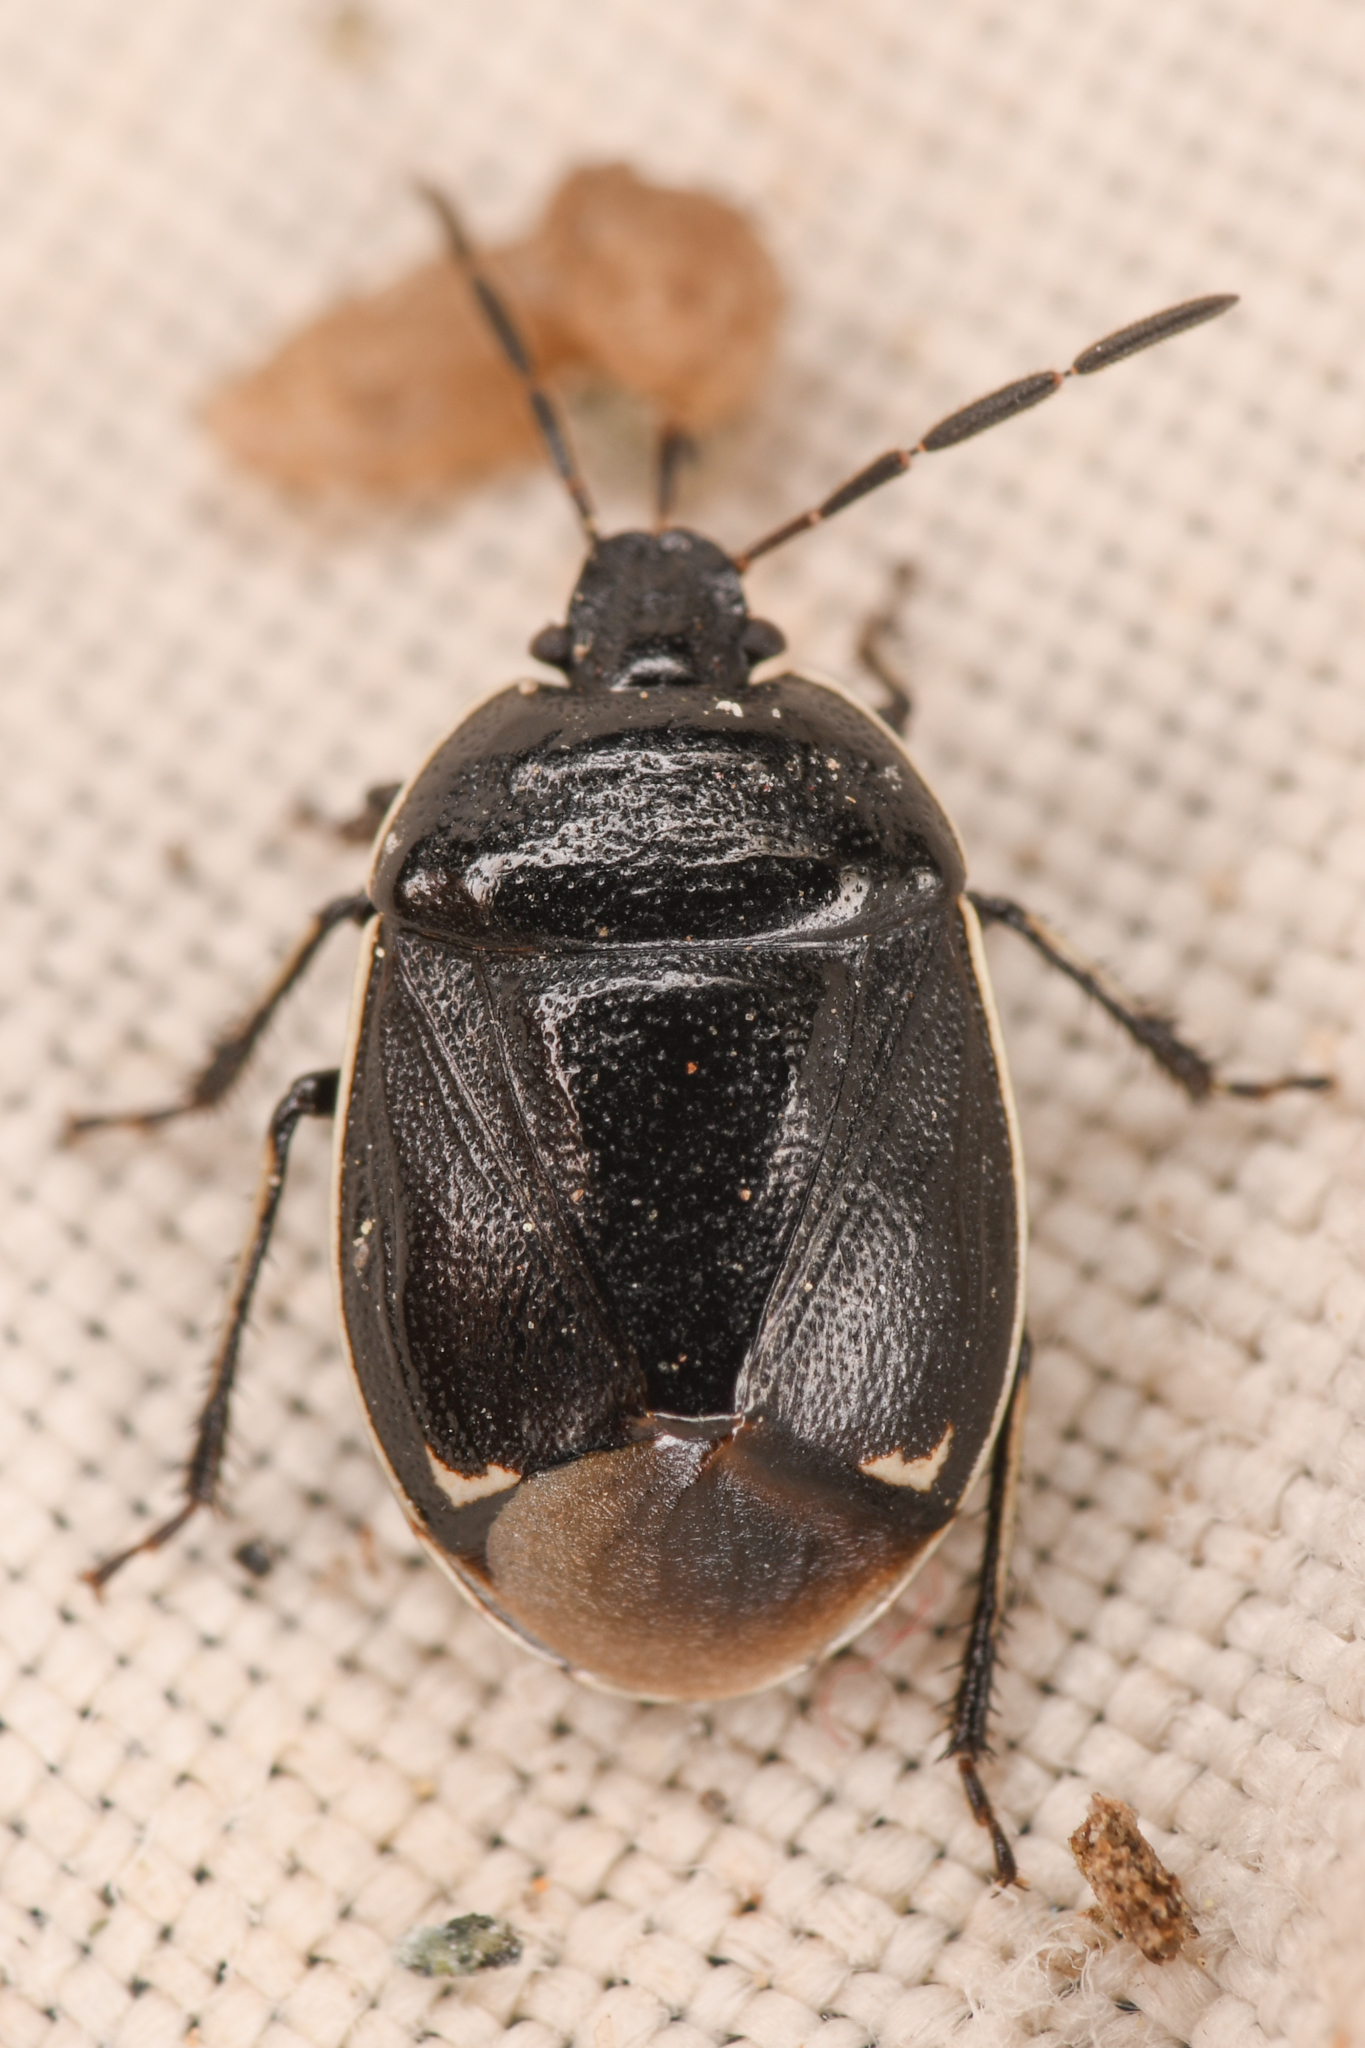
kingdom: Animalia
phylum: Arthropoda
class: Insecta
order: Hemiptera
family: Cydnidae
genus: Sehirus
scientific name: Sehirus cinctus
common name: White-margined burrower bug
